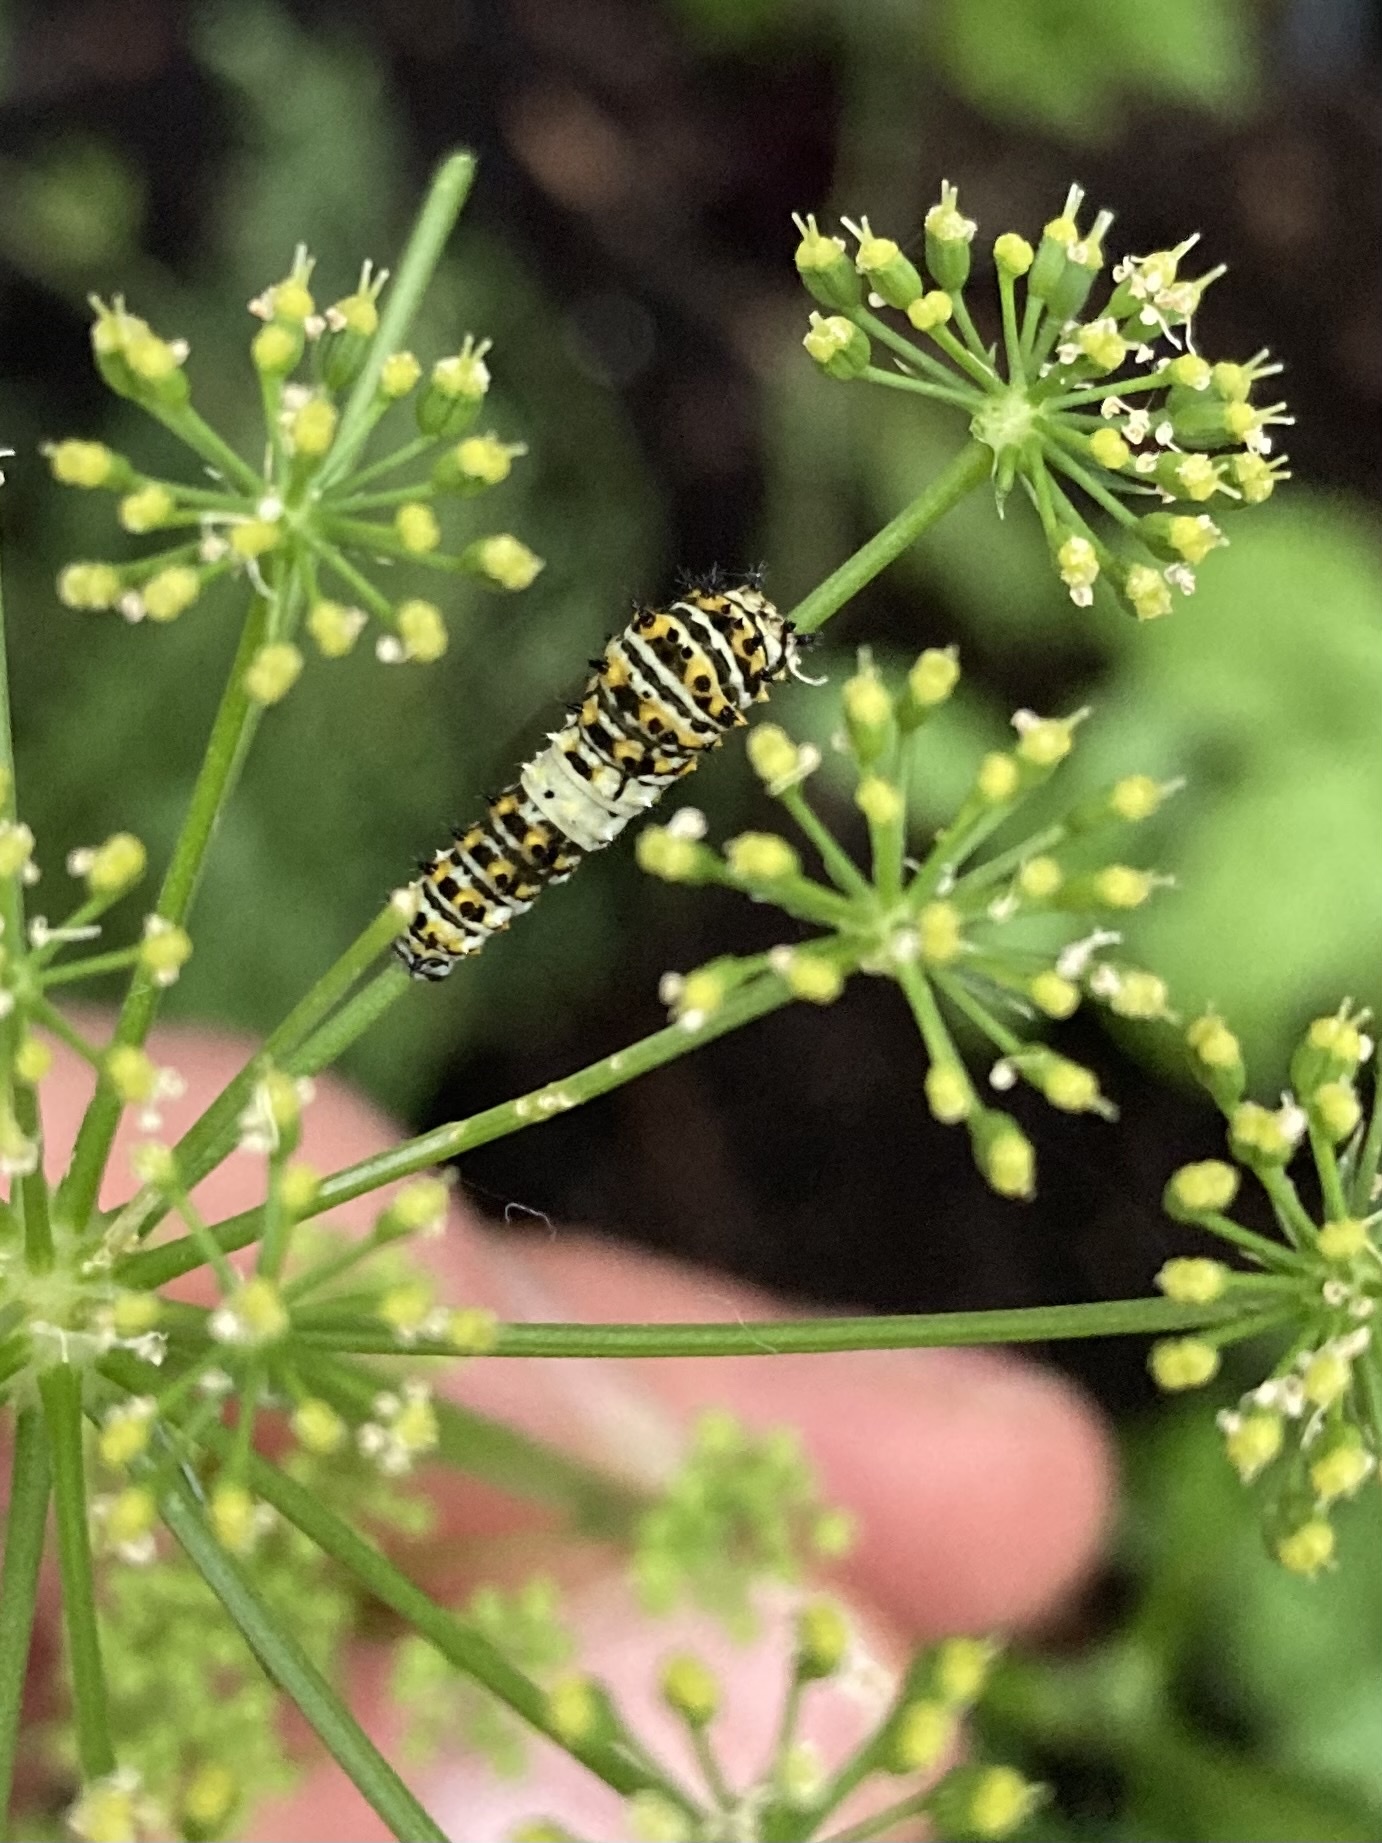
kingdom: Animalia
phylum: Arthropoda
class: Insecta
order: Lepidoptera
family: Papilionidae
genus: Papilio
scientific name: Papilio polyxenes
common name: Black swallowtail
